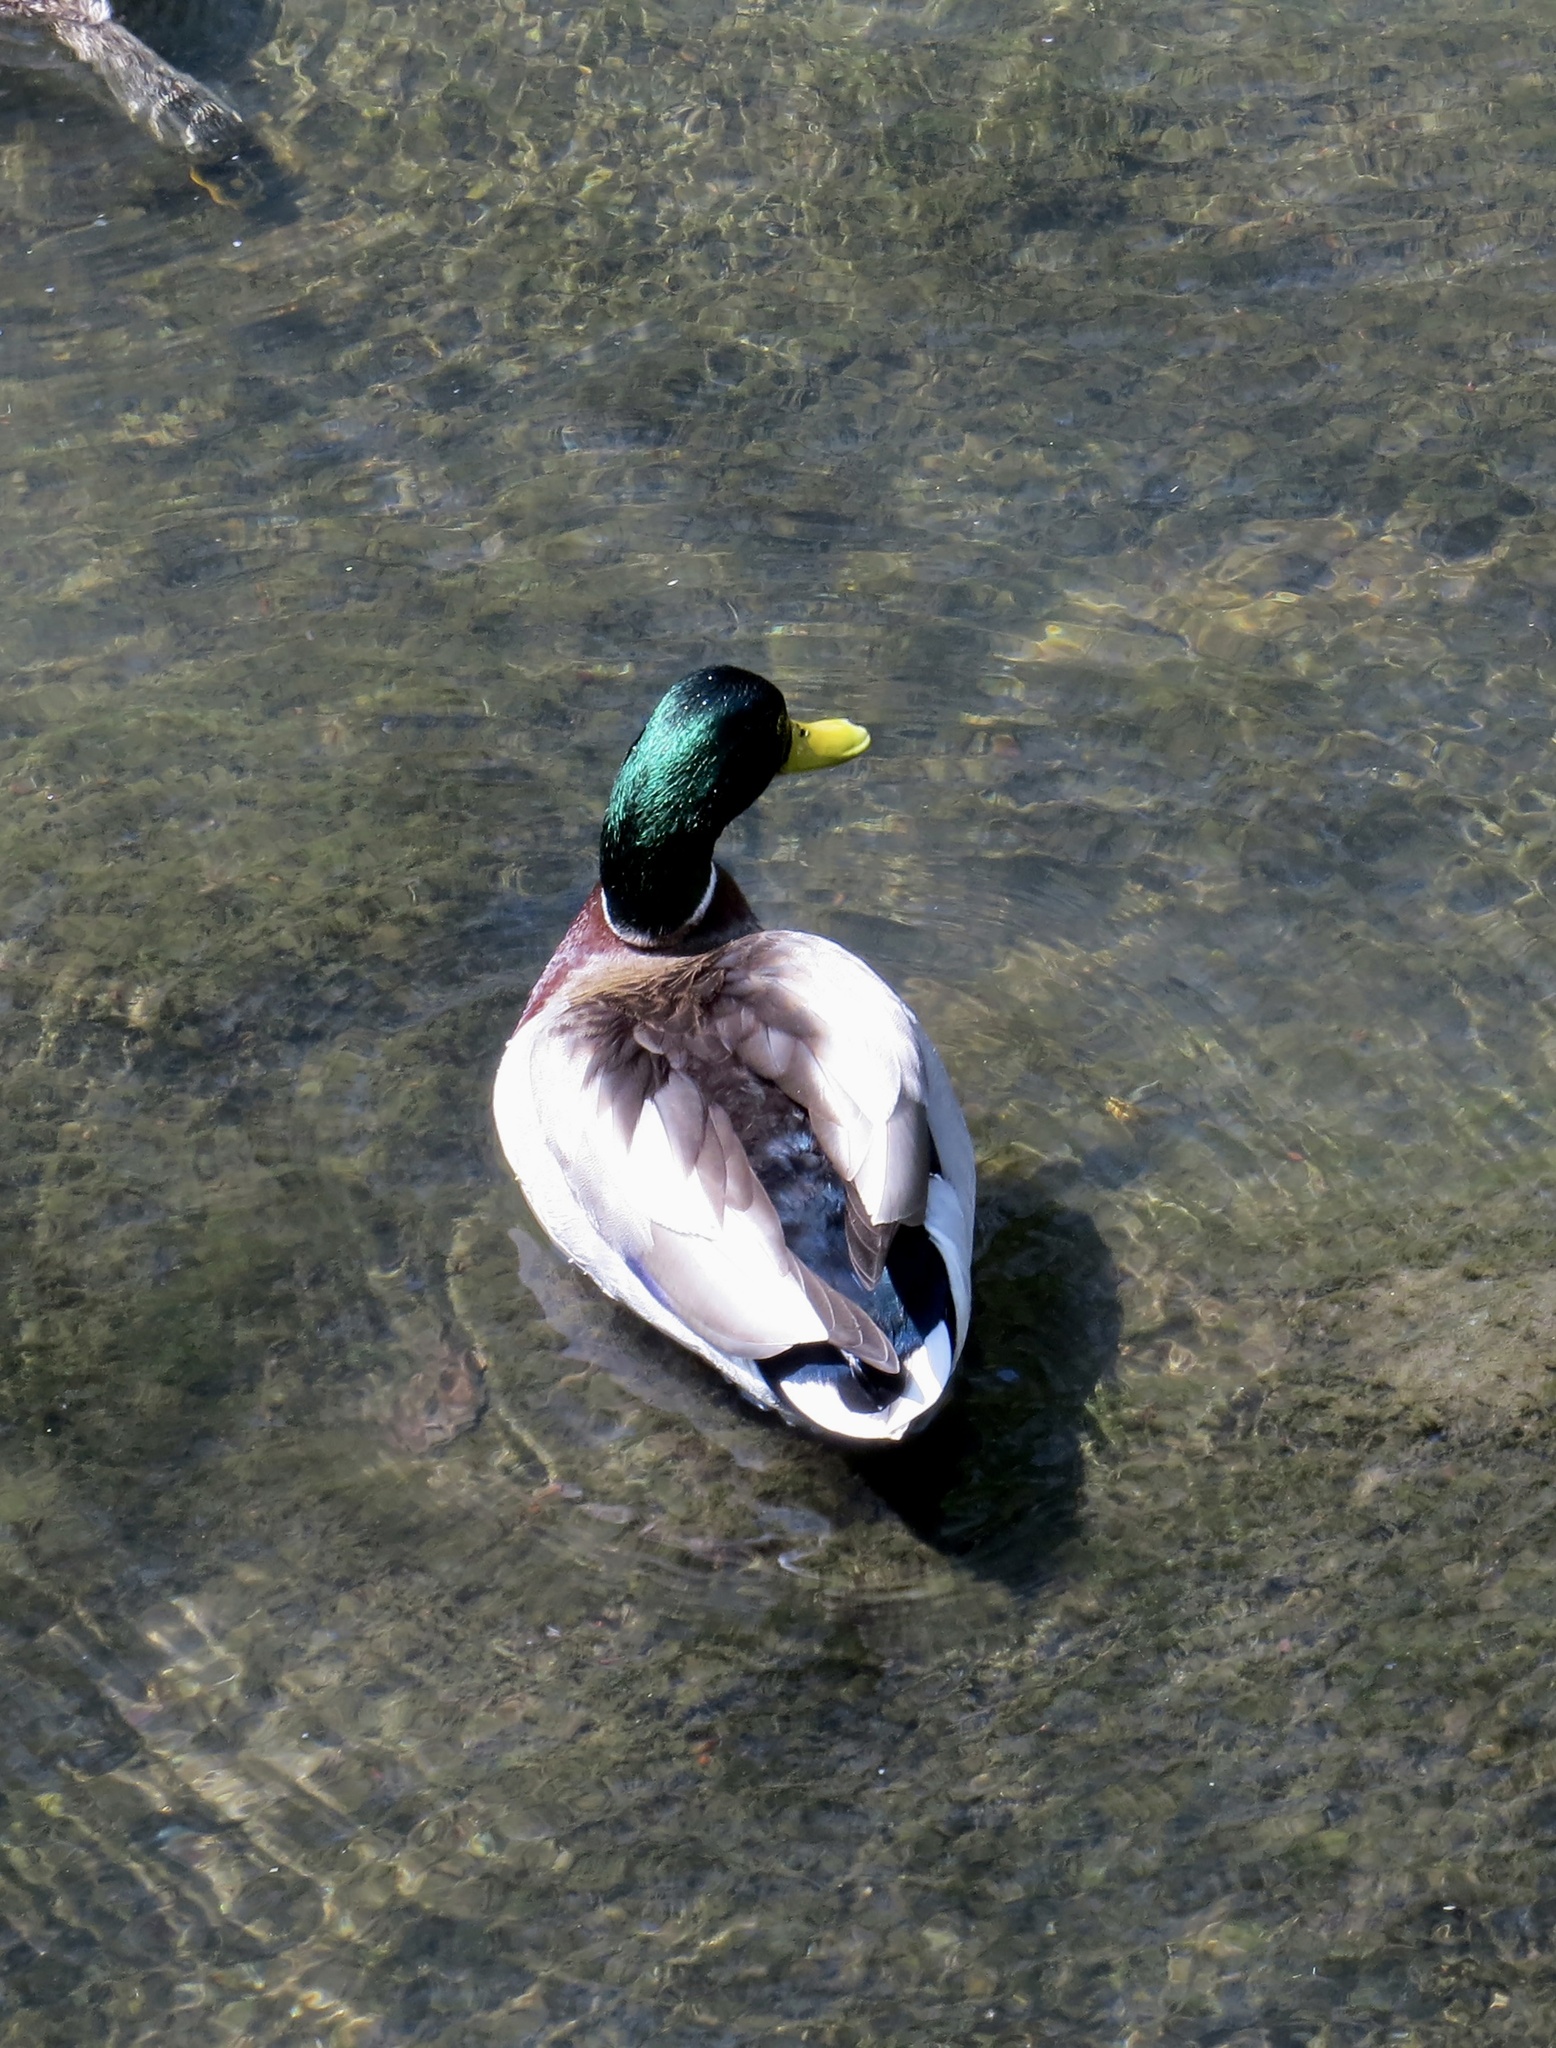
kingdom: Animalia
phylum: Chordata
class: Aves
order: Anseriformes
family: Anatidae
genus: Anas
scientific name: Anas platyrhynchos
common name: Mallard
